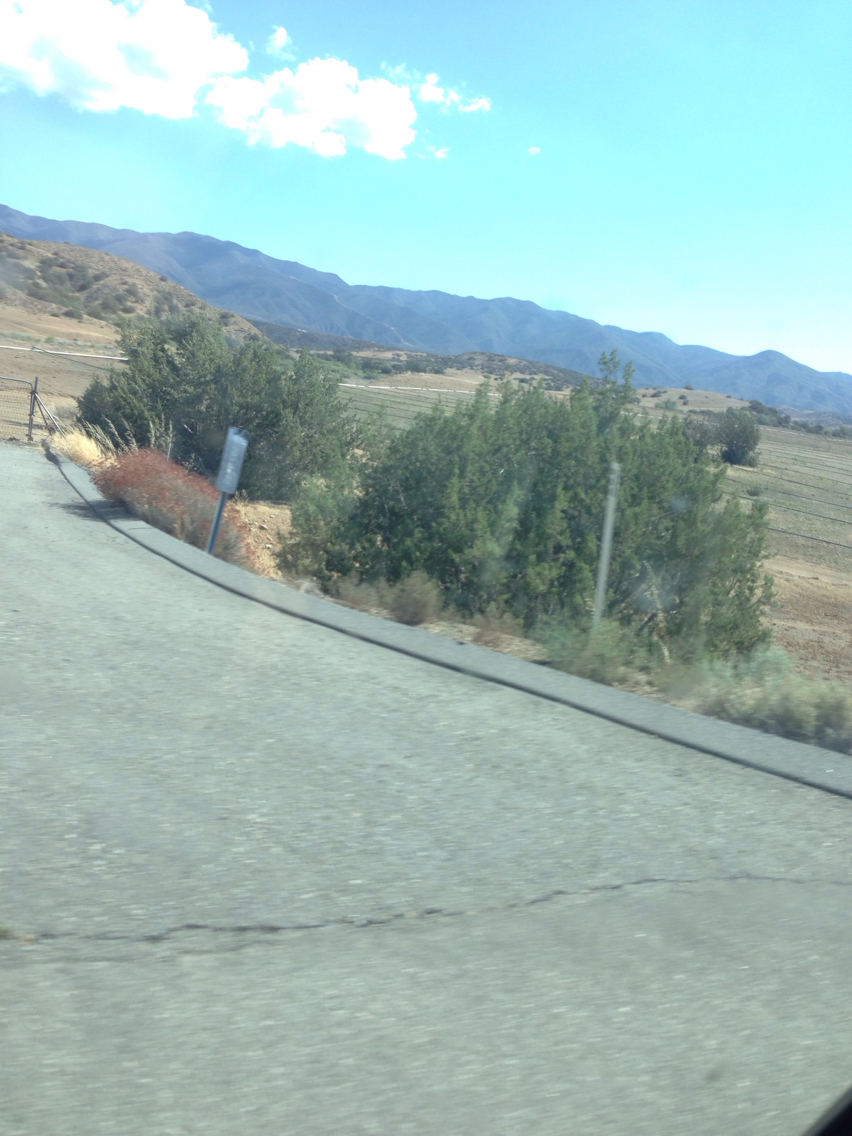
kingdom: Plantae
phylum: Tracheophyta
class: Pinopsida
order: Pinales
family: Cupressaceae
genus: Juniperus
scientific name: Juniperus californica
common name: California juniper
